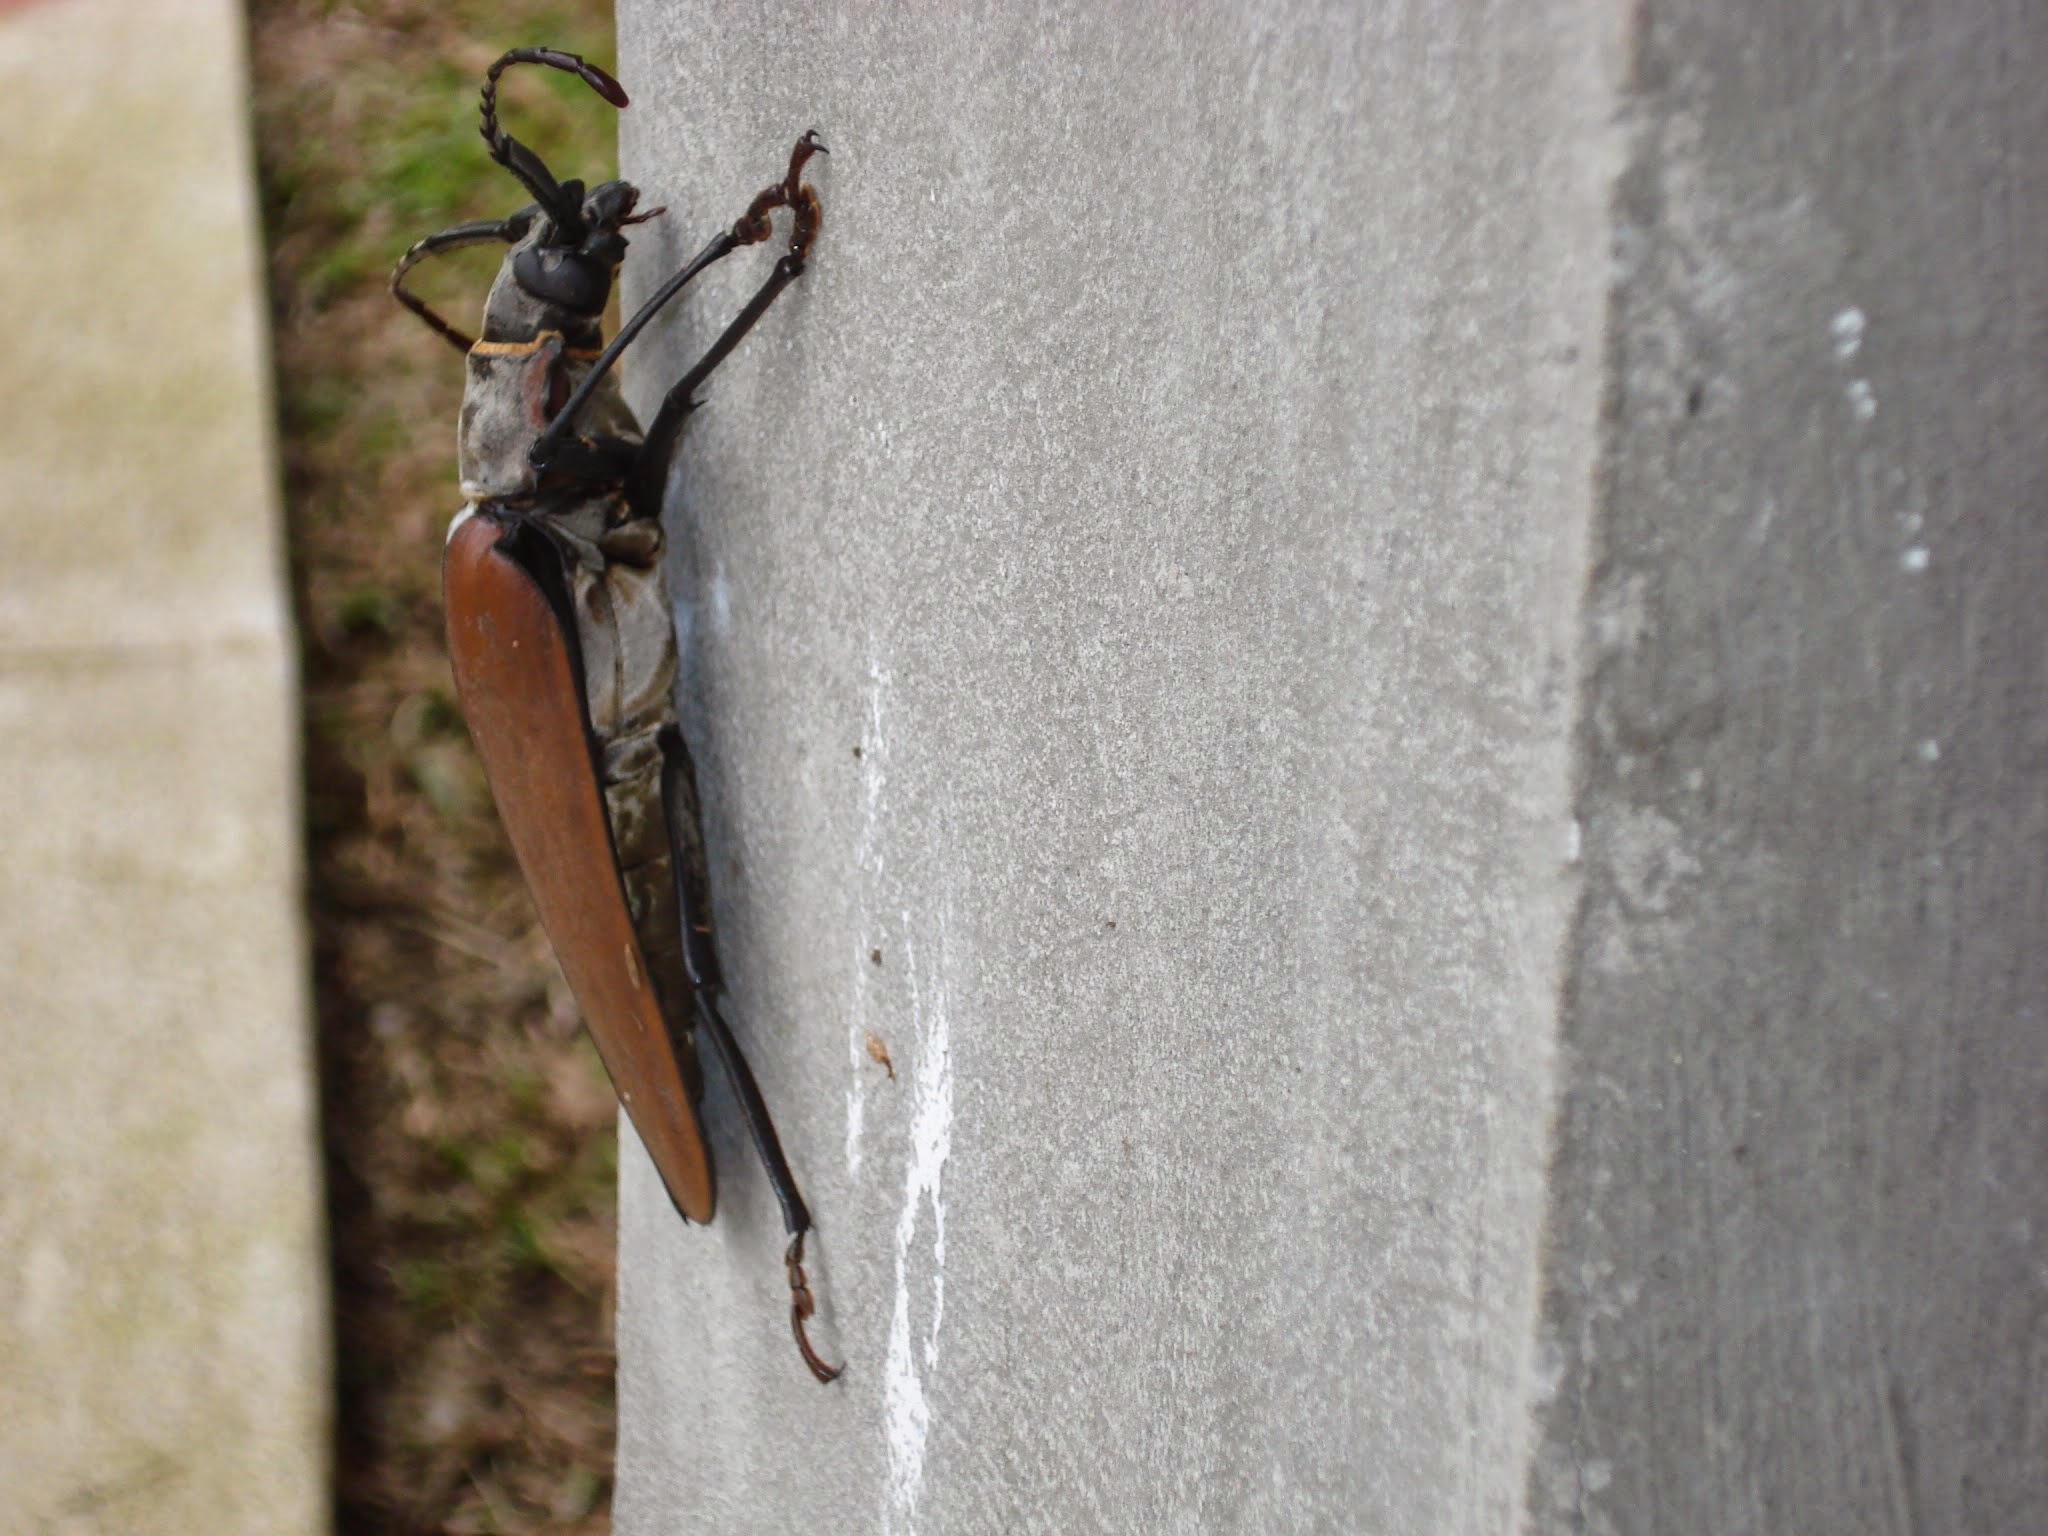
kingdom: Animalia
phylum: Arthropoda
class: Insecta
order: Coleoptera
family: Cerambycidae
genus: Enoplocerus
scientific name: Enoplocerus armillatus
